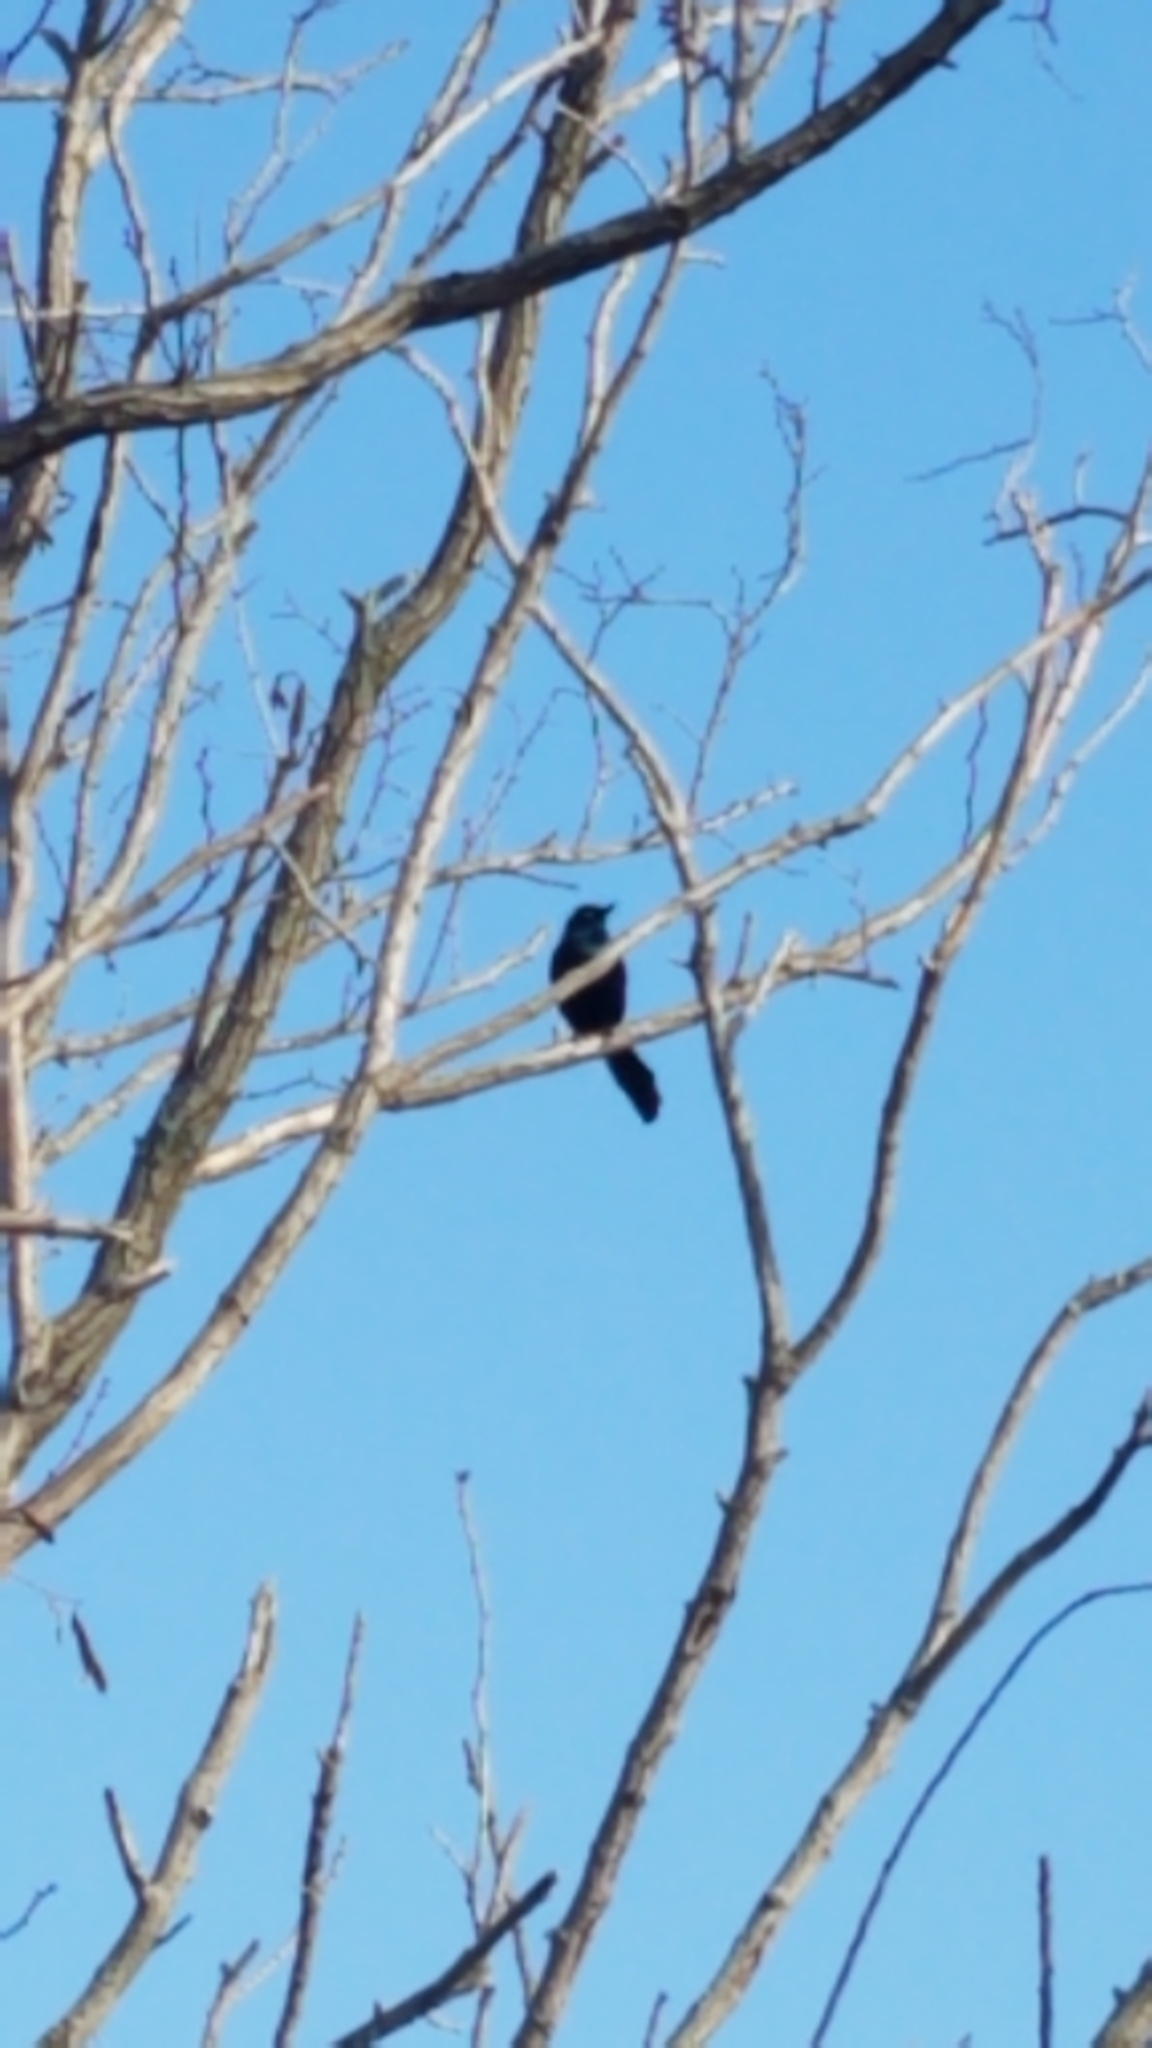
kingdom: Animalia
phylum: Chordata
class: Aves
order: Passeriformes
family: Icteridae
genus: Quiscalus
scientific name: Quiscalus quiscula
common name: Common grackle
